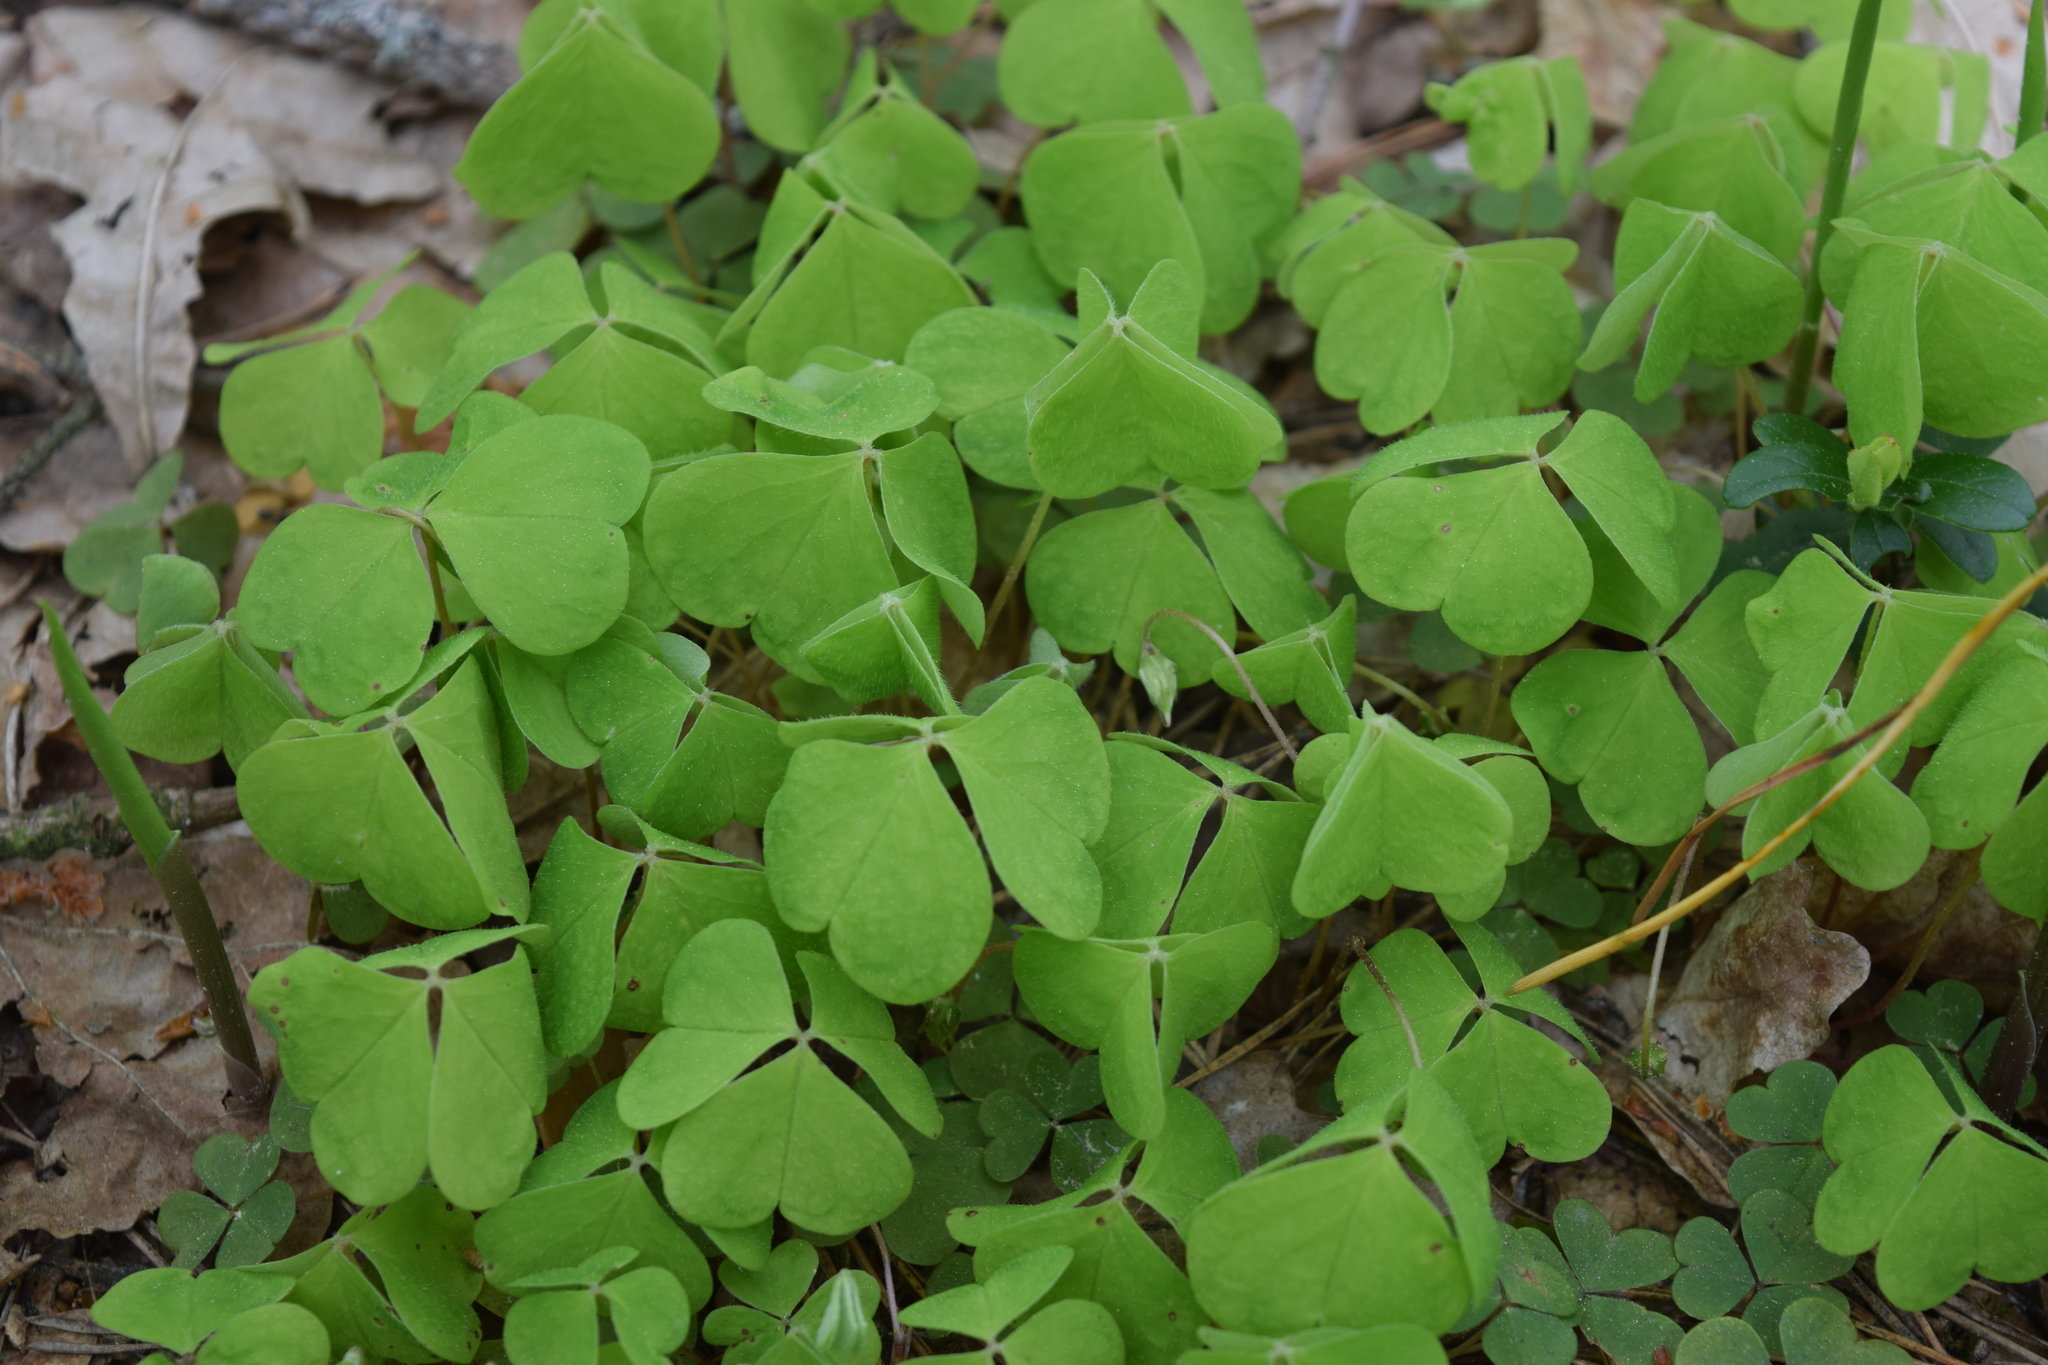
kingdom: Plantae
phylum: Tracheophyta
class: Magnoliopsida
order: Oxalidales
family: Oxalidaceae
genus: Oxalis
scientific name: Oxalis acetosella
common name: Wood-sorrel
